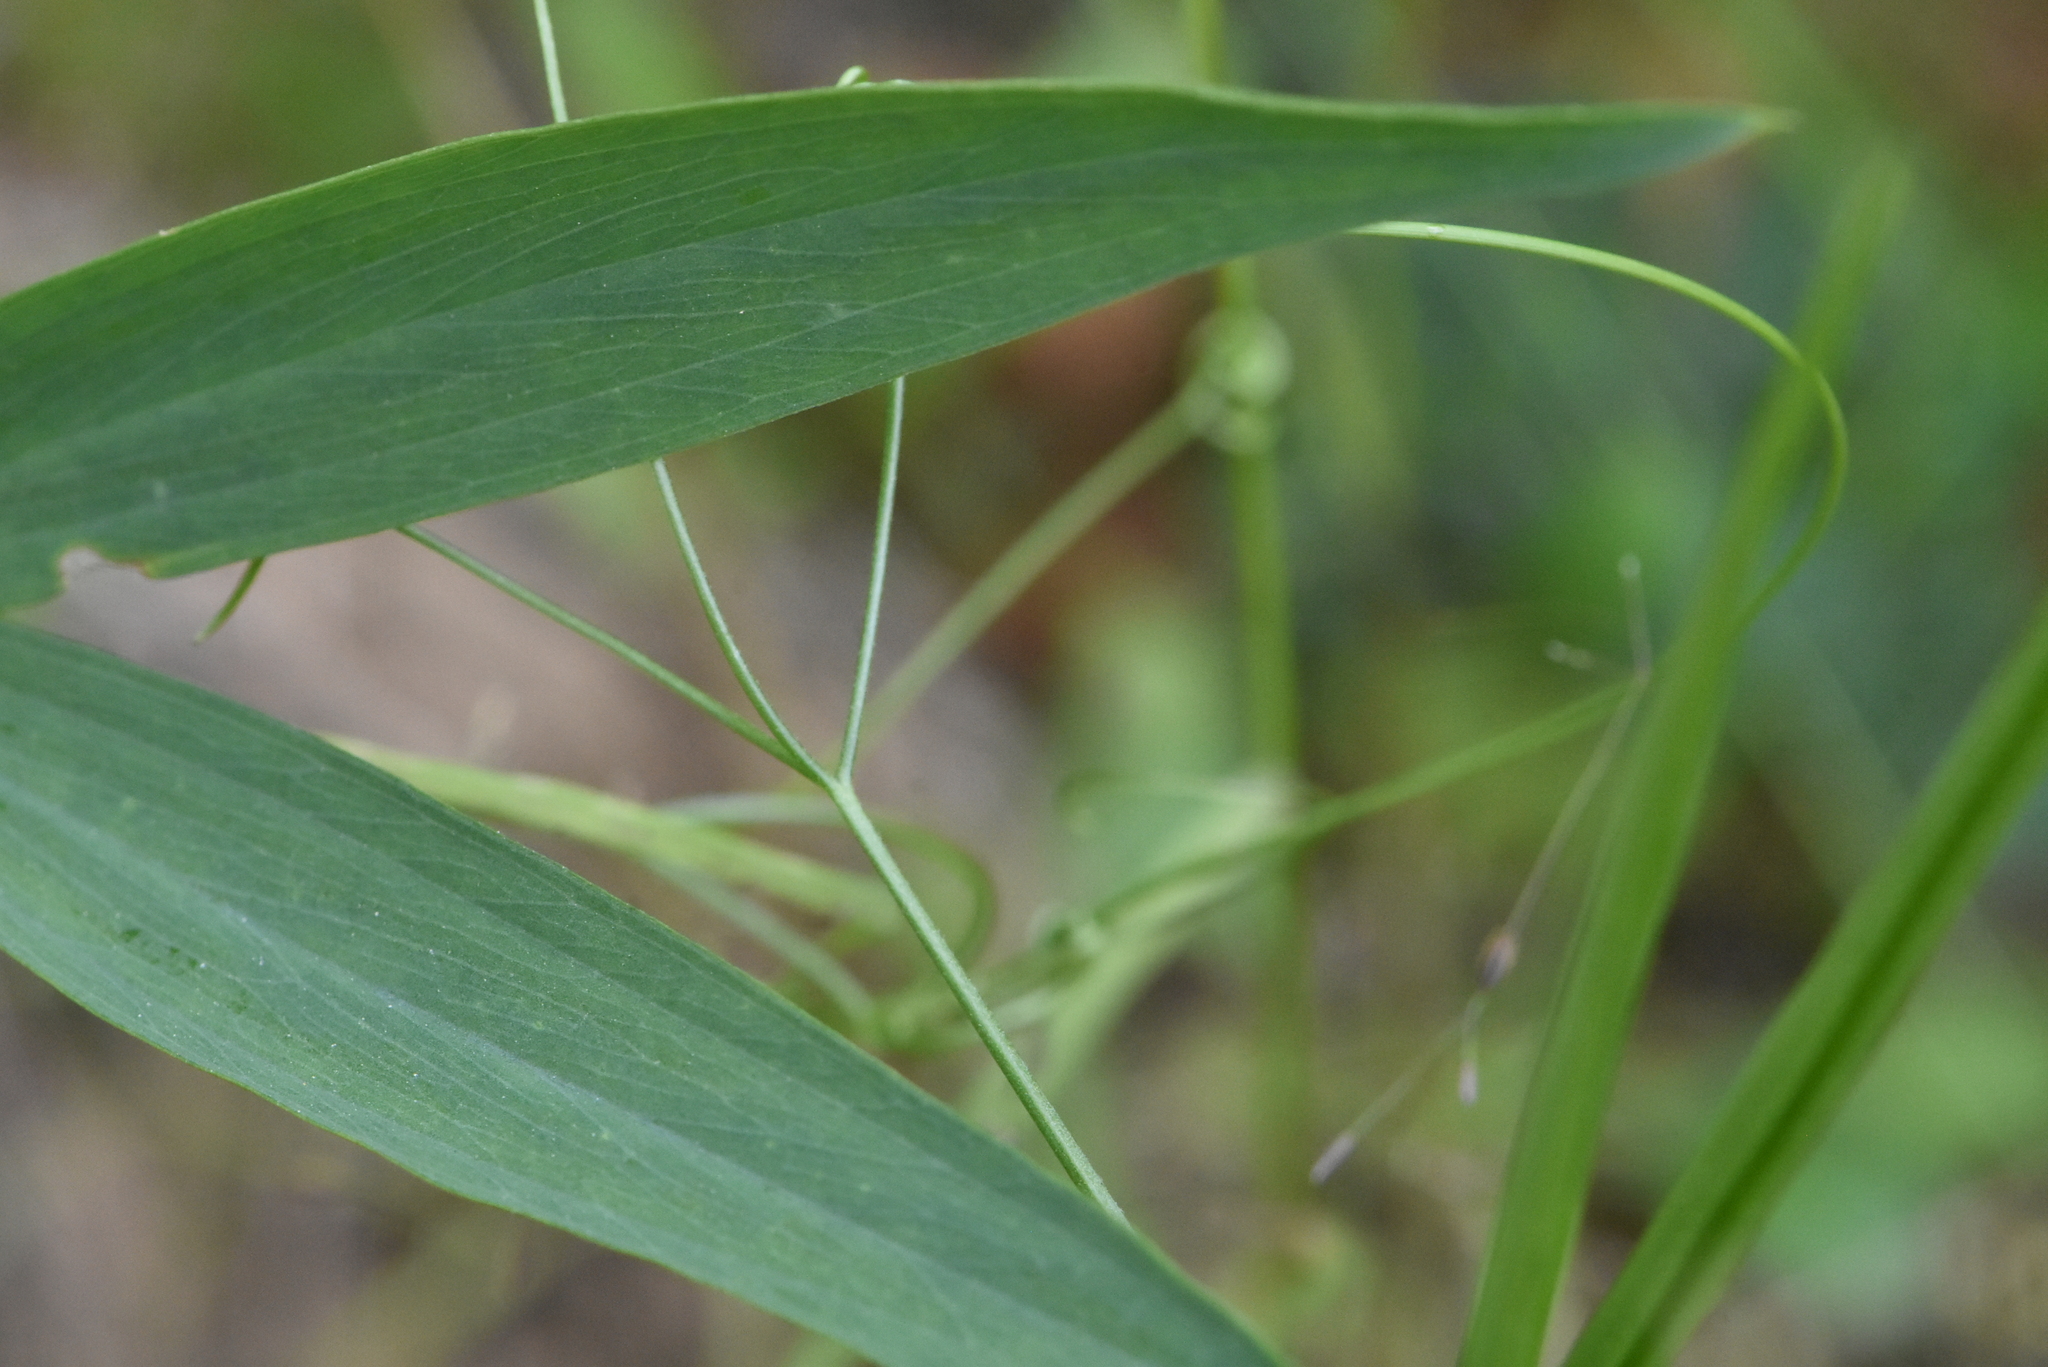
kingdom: Plantae
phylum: Tracheophyta
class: Magnoliopsida
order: Fabales
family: Fabaceae
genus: Lathyrus
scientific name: Lathyrus sylvestris
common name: Flat pea
